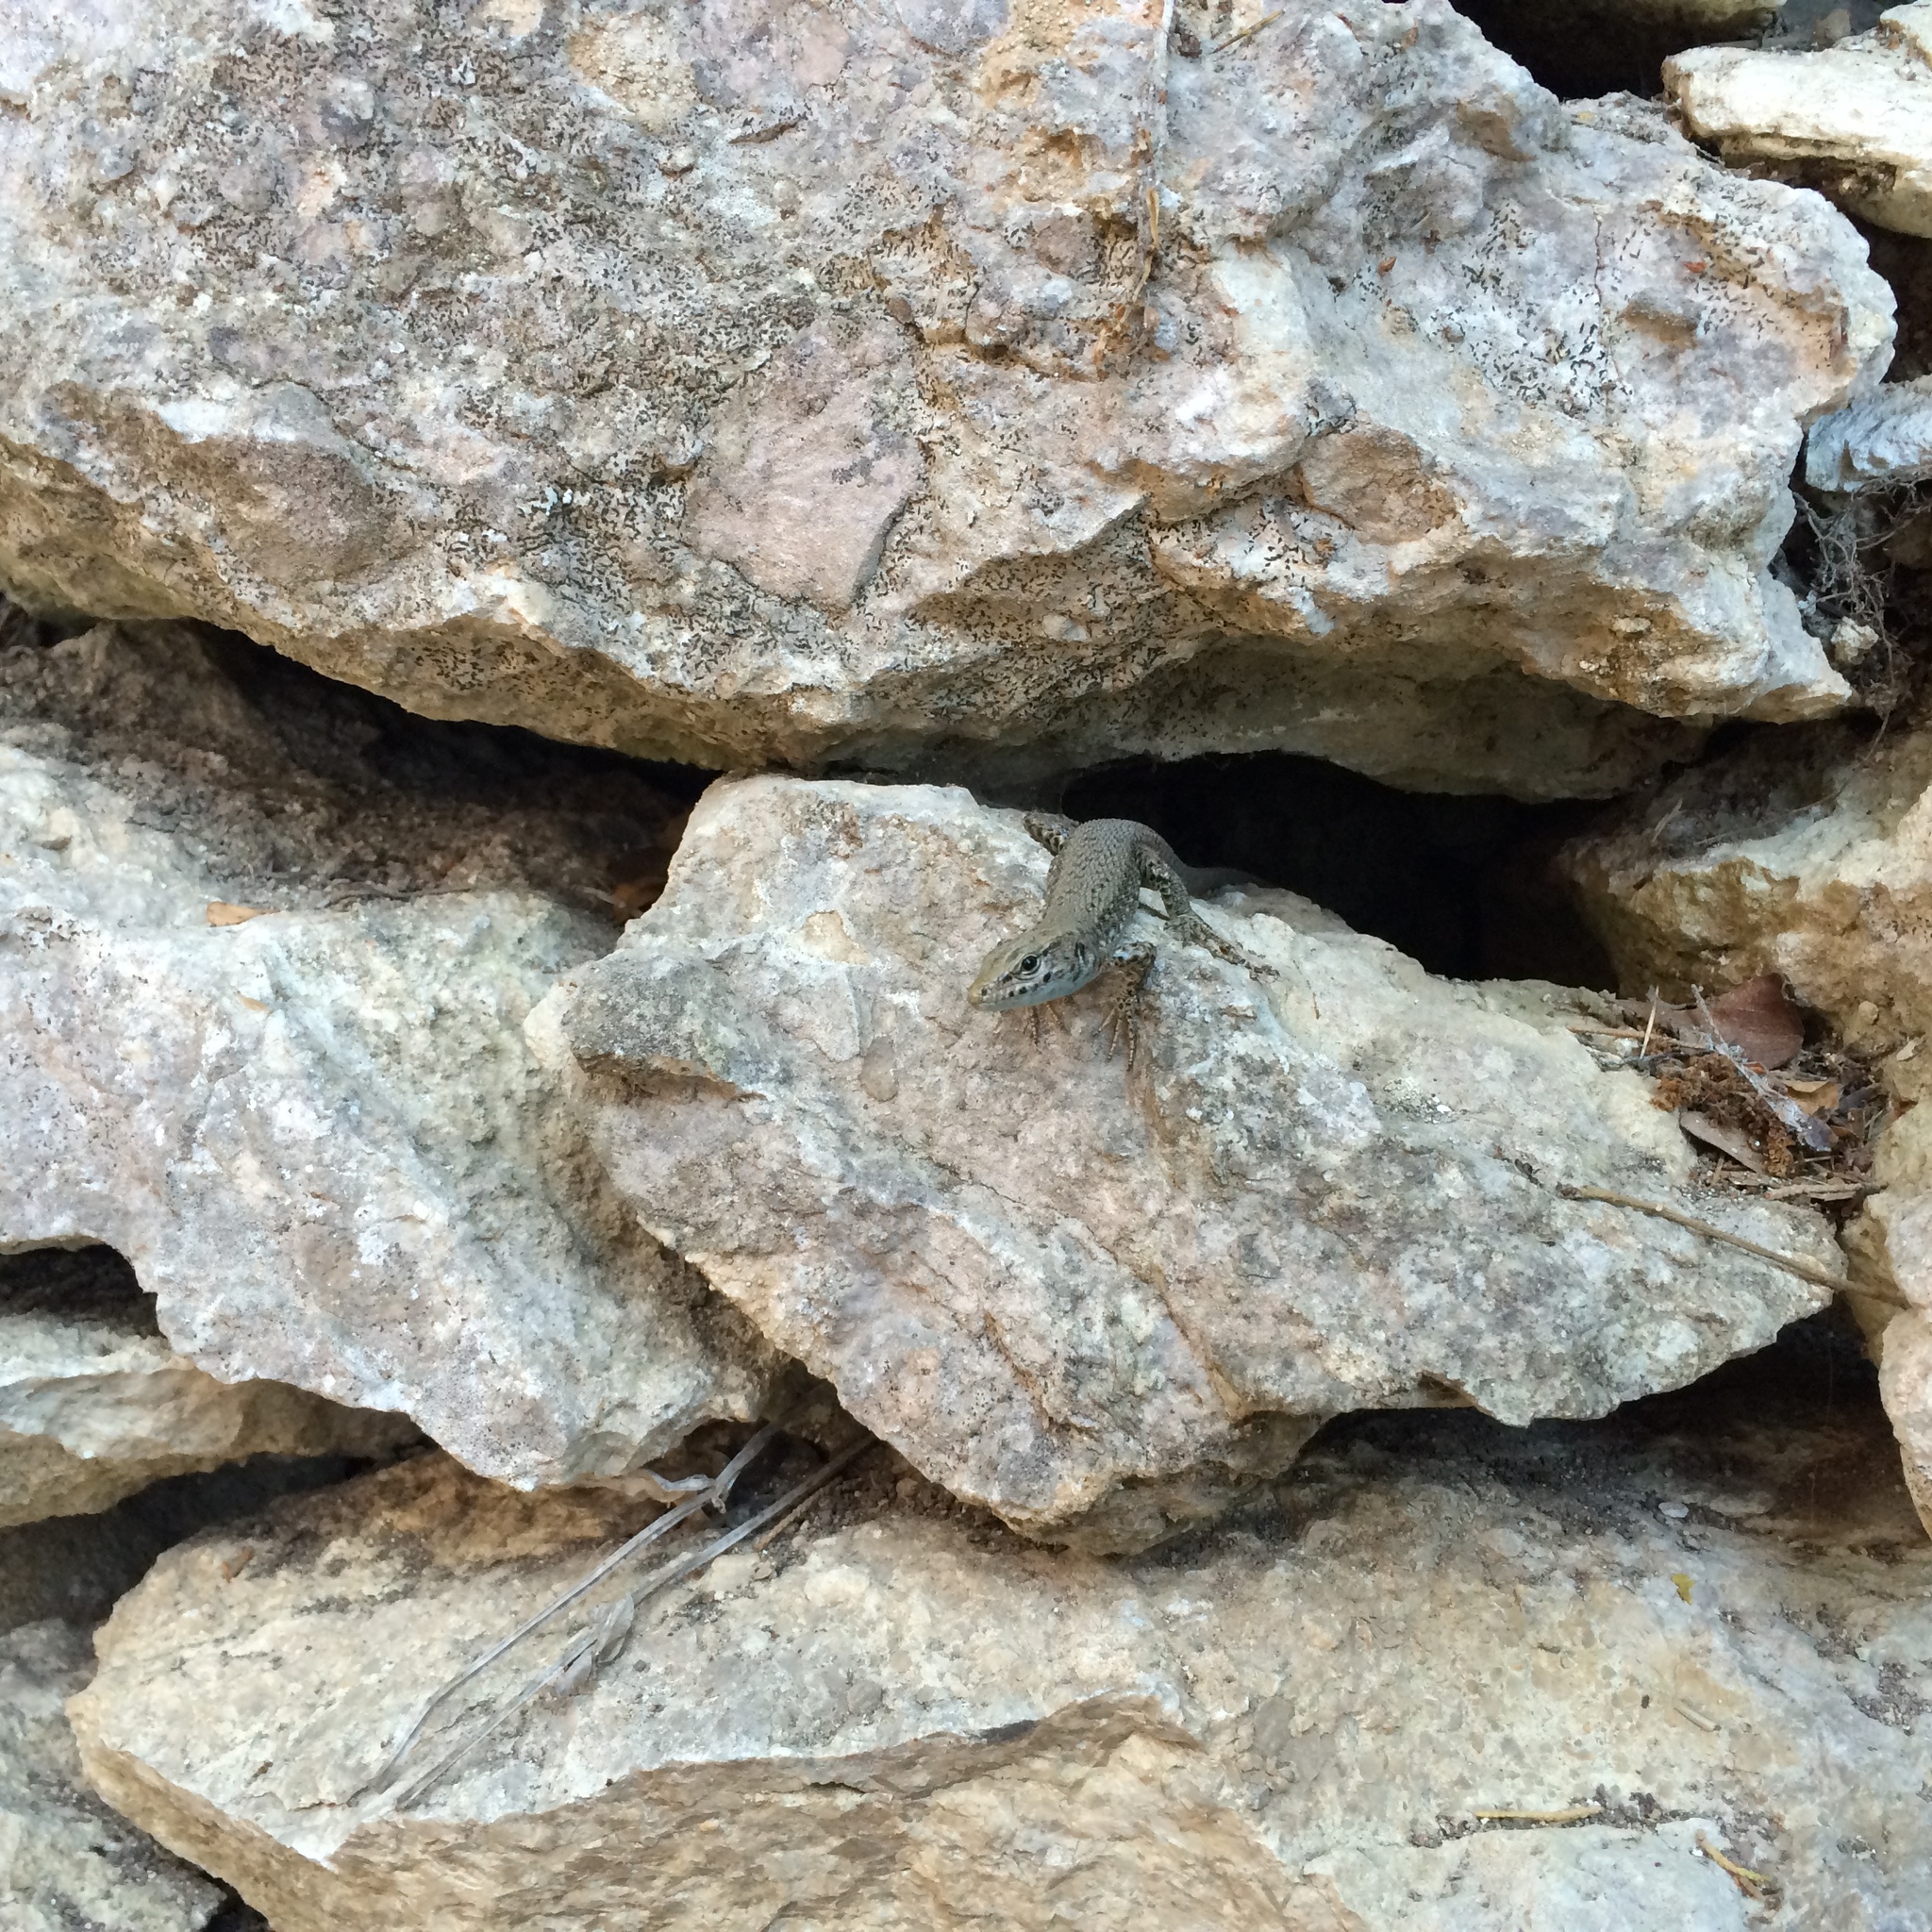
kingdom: Animalia
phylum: Chordata
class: Squamata
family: Lacertidae
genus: Algyroides
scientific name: Algyroides nigropunctatus
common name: Blue-throated keeled lizard
